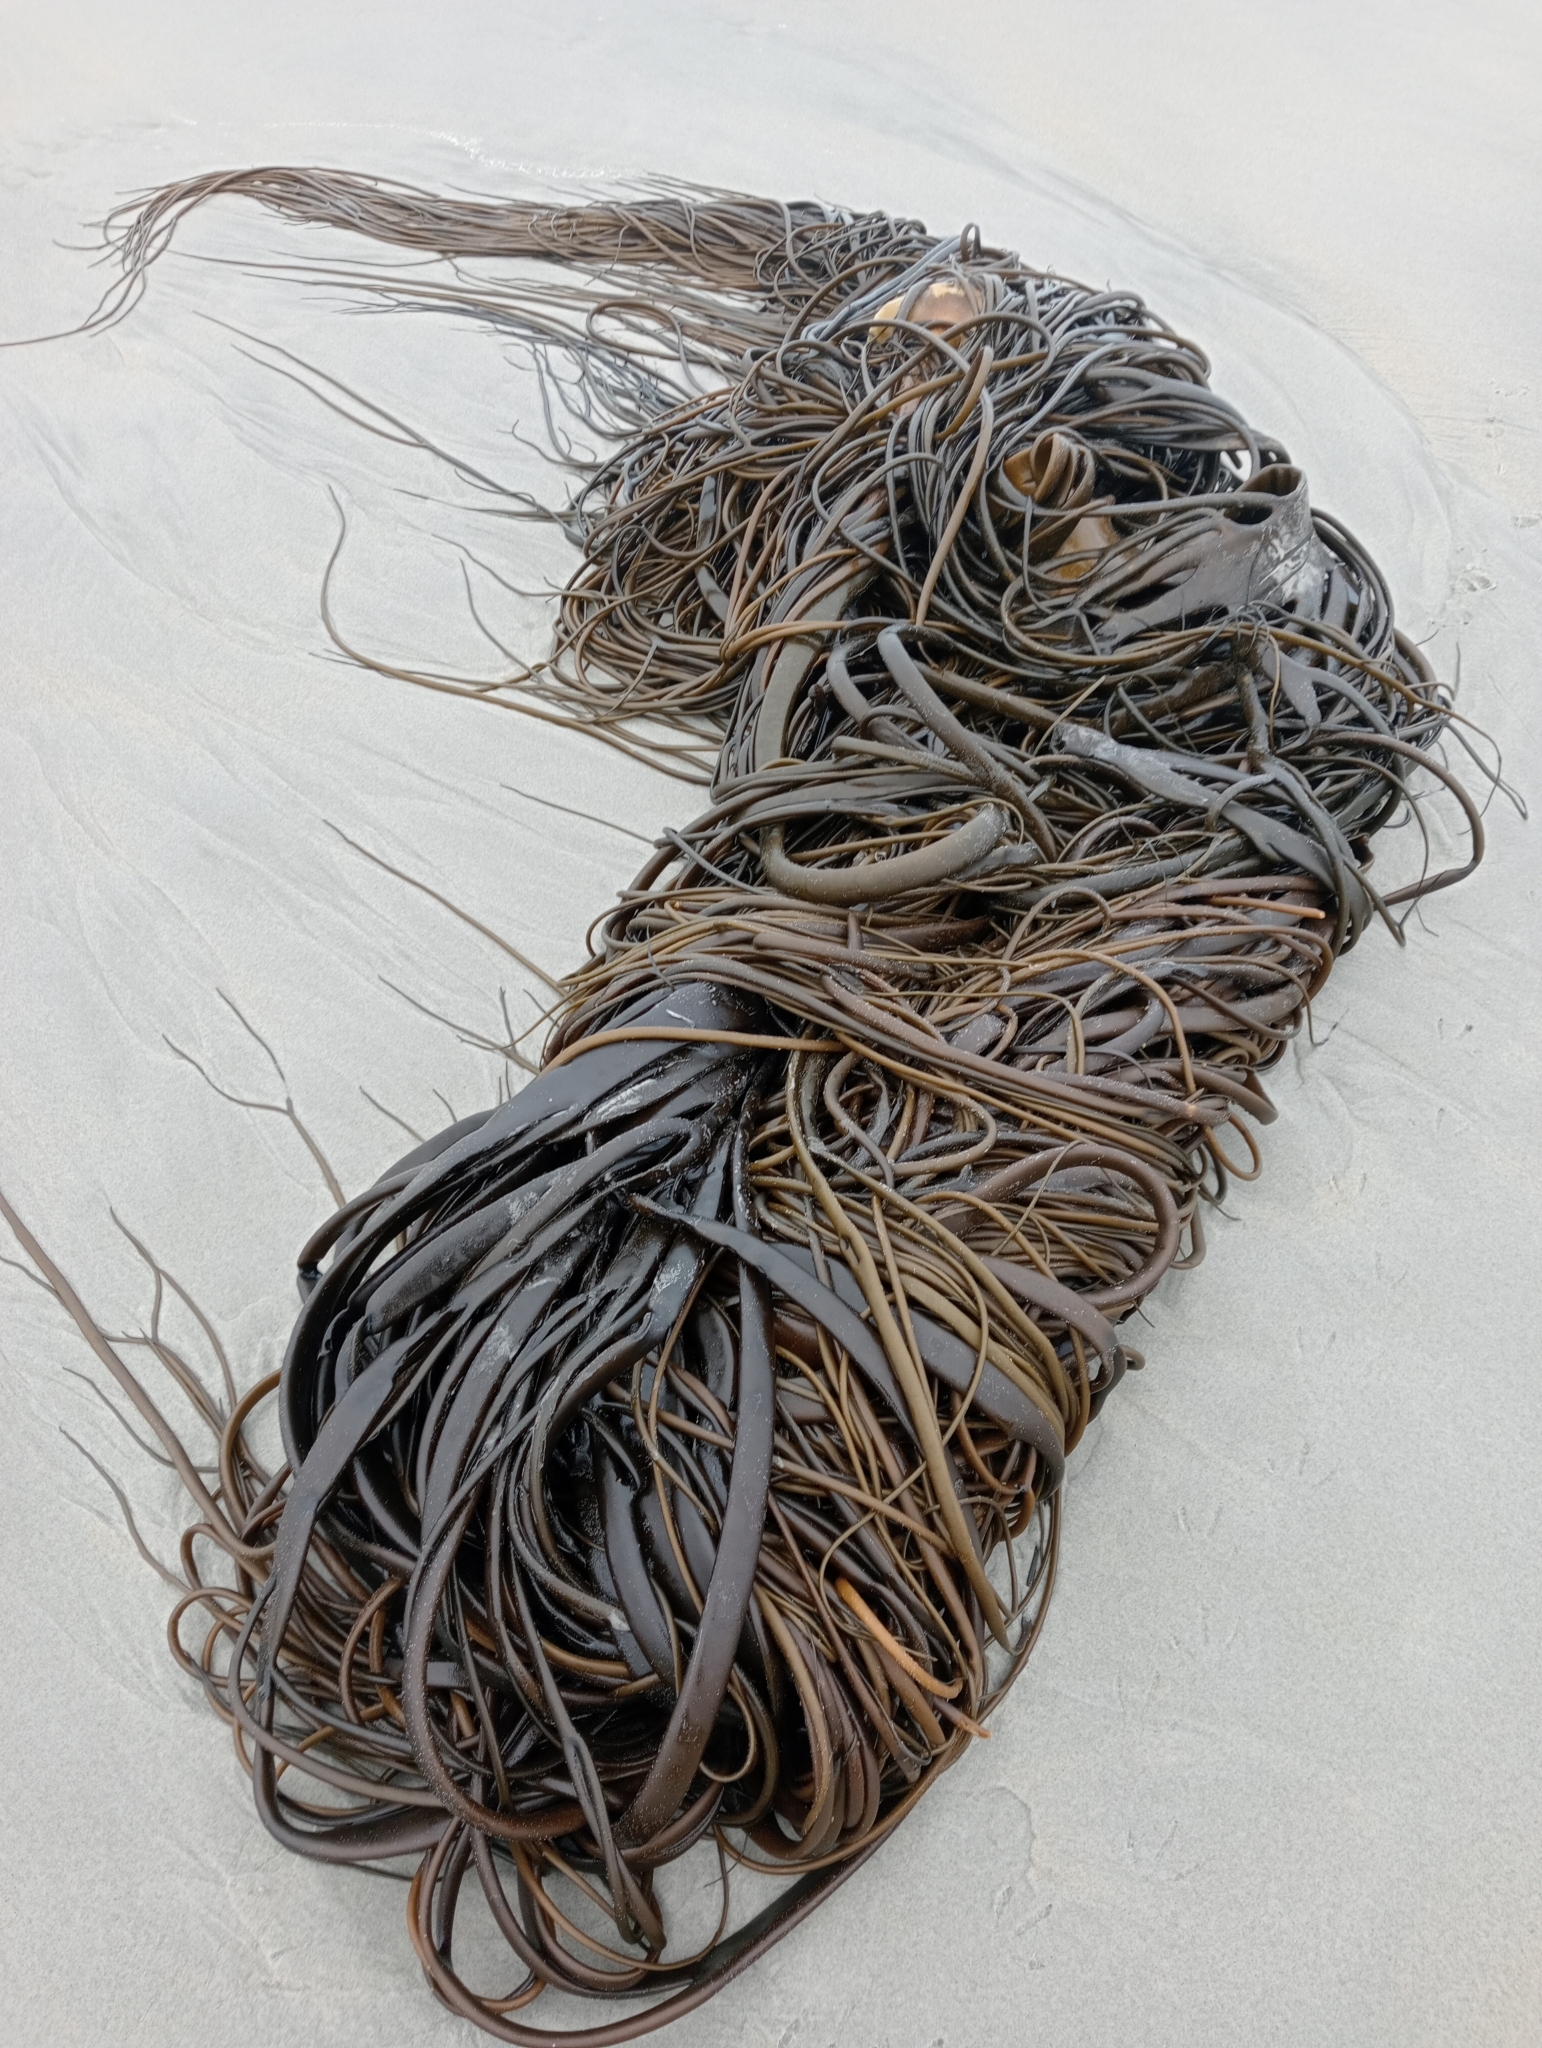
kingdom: Chromista
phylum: Ochrophyta
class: Phaeophyceae
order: Fucales
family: Durvillaeaceae
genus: Durvillaea
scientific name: Durvillaea antarctica
